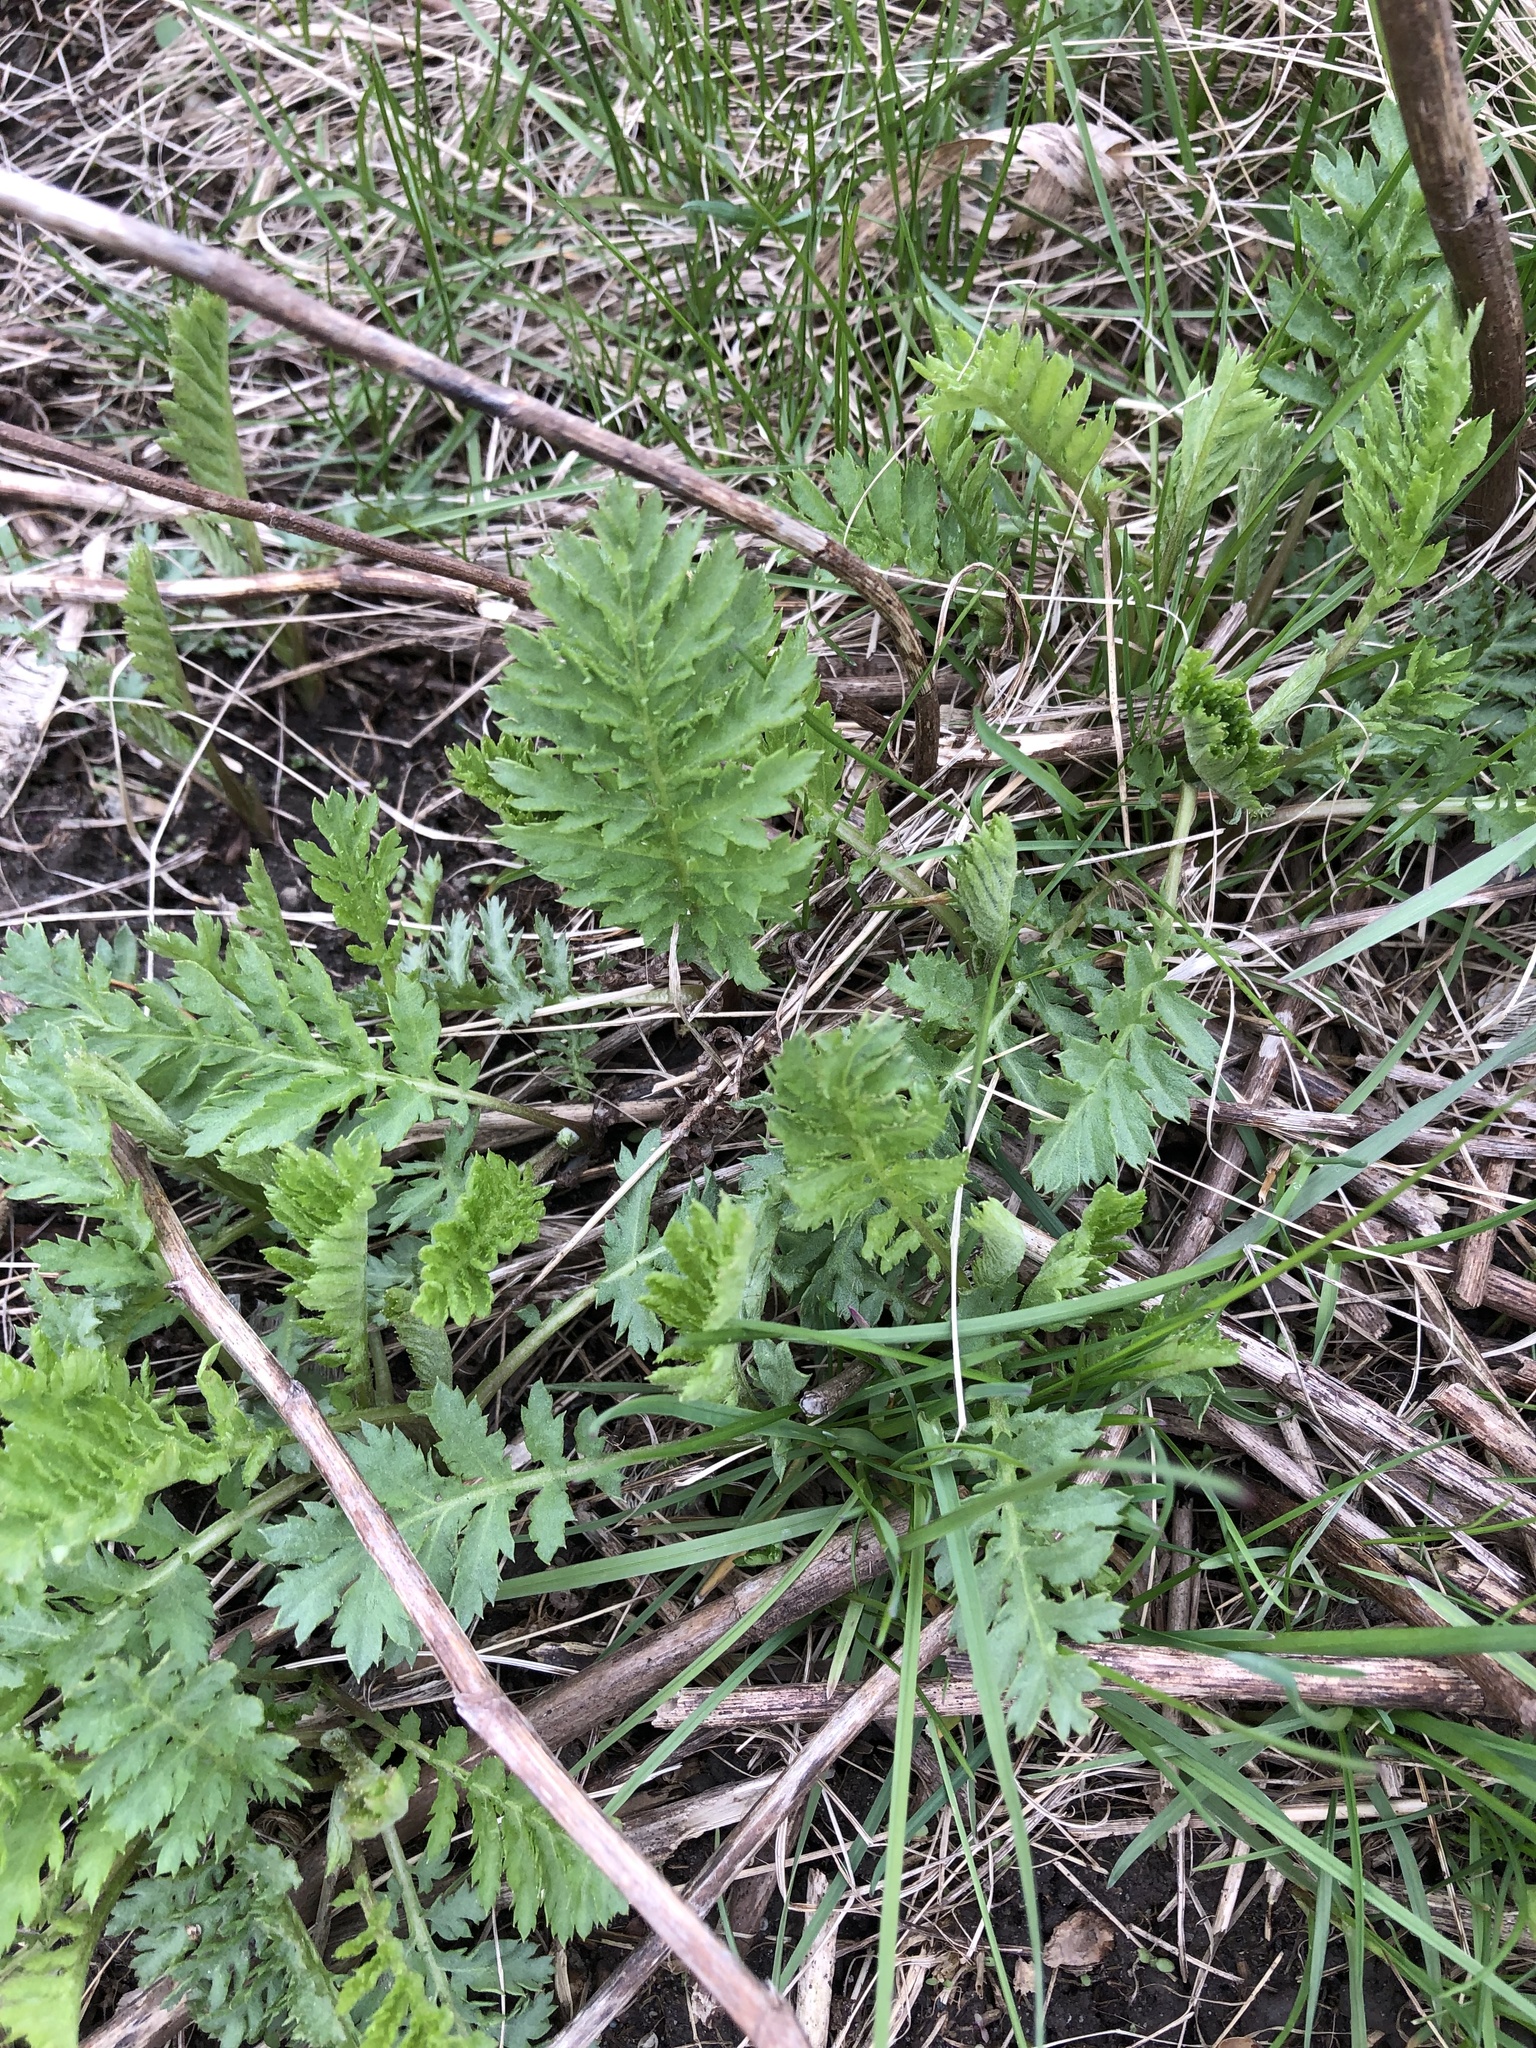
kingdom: Plantae
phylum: Tracheophyta
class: Magnoliopsida
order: Asterales
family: Asteraceae
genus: Tanacetum
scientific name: Tanacetum vulgare
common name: Common tansy
